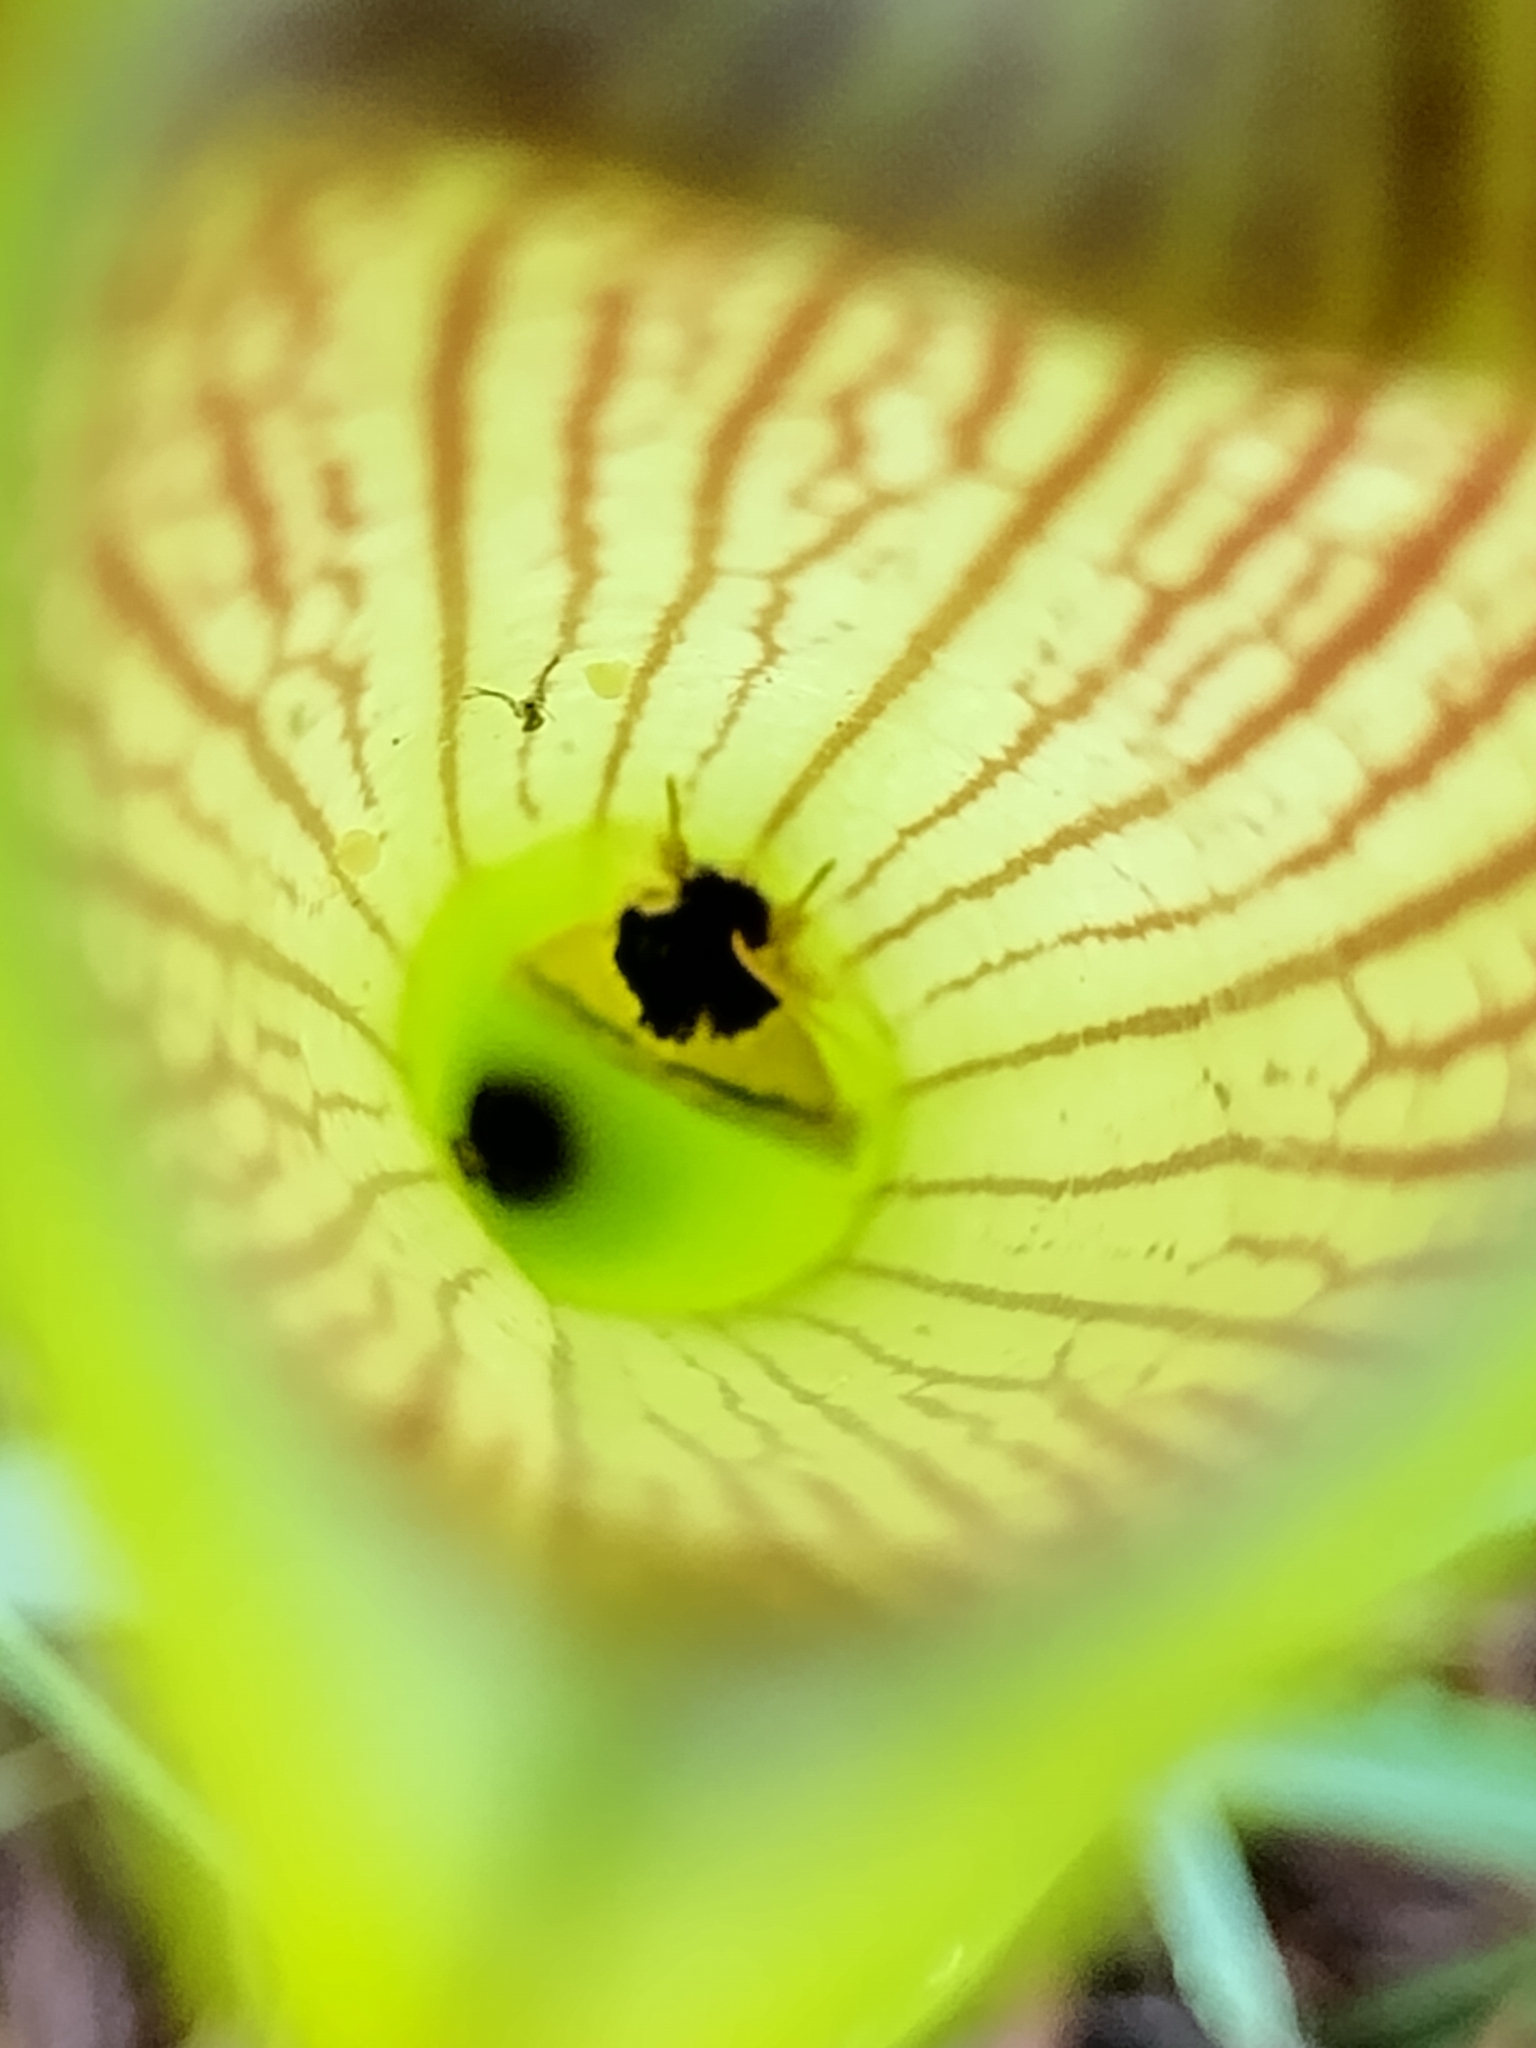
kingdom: Animalia
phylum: Arthropoda
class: Insecta
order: Lepidoptera
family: Noctuidae
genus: Exyra
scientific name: Exyra semicrocea
